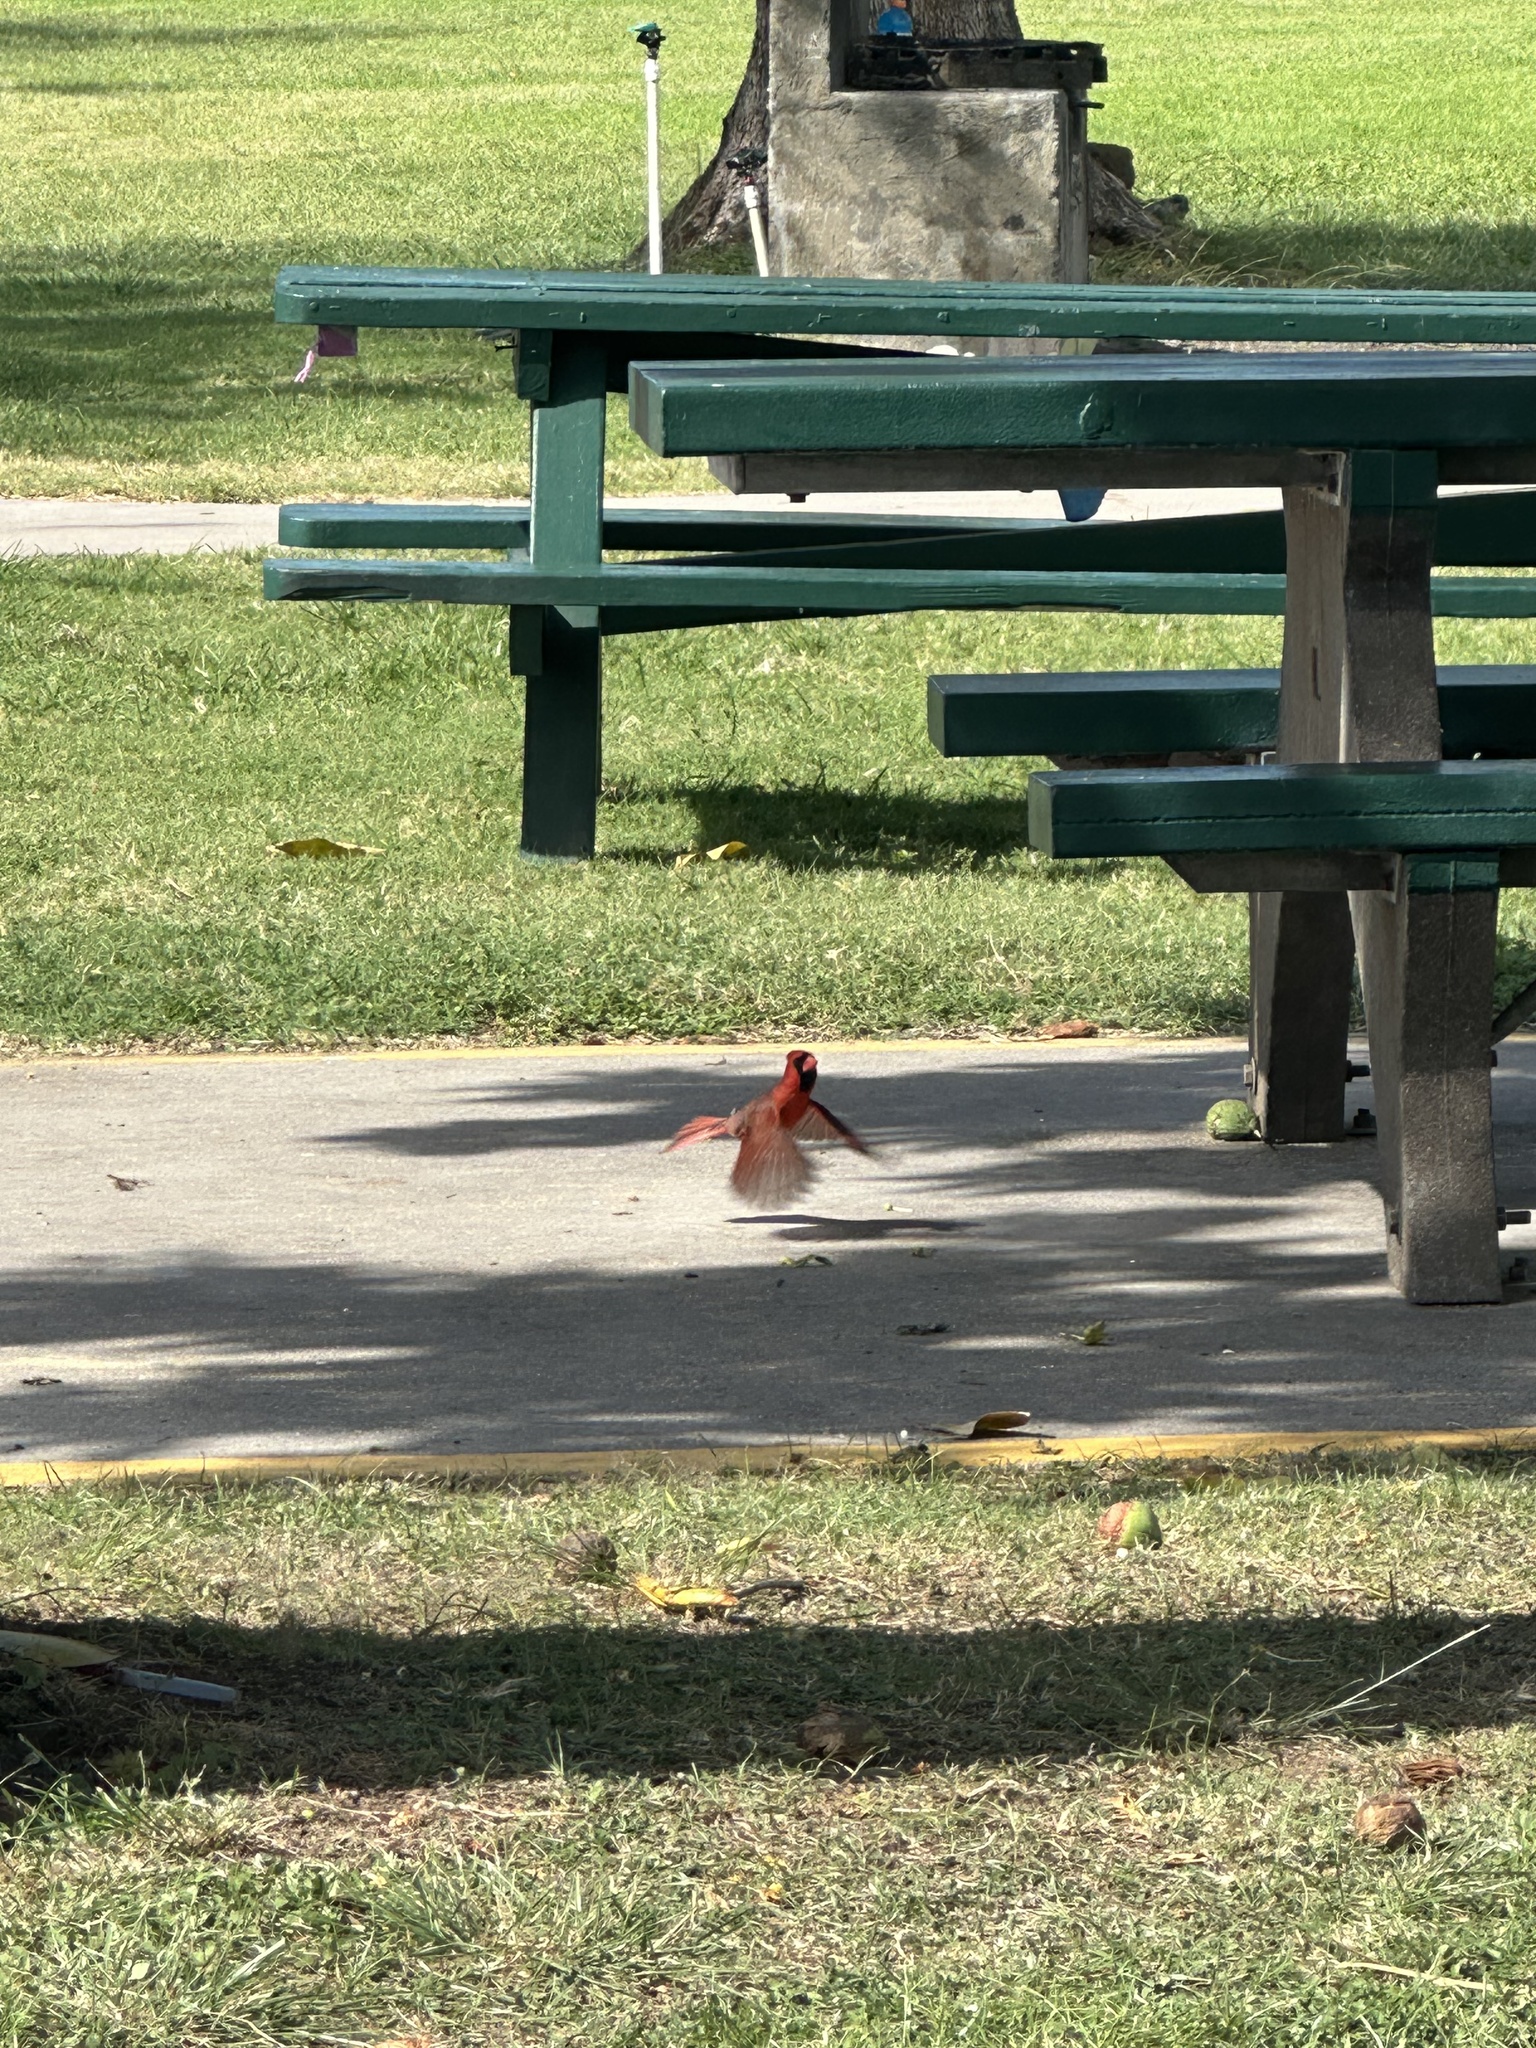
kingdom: Animalia
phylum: Chordata
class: Aves
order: Passeriformes
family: Cardinalidae
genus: Cardinalis
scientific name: Cardinalis cardinalis
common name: Northern cardinal
